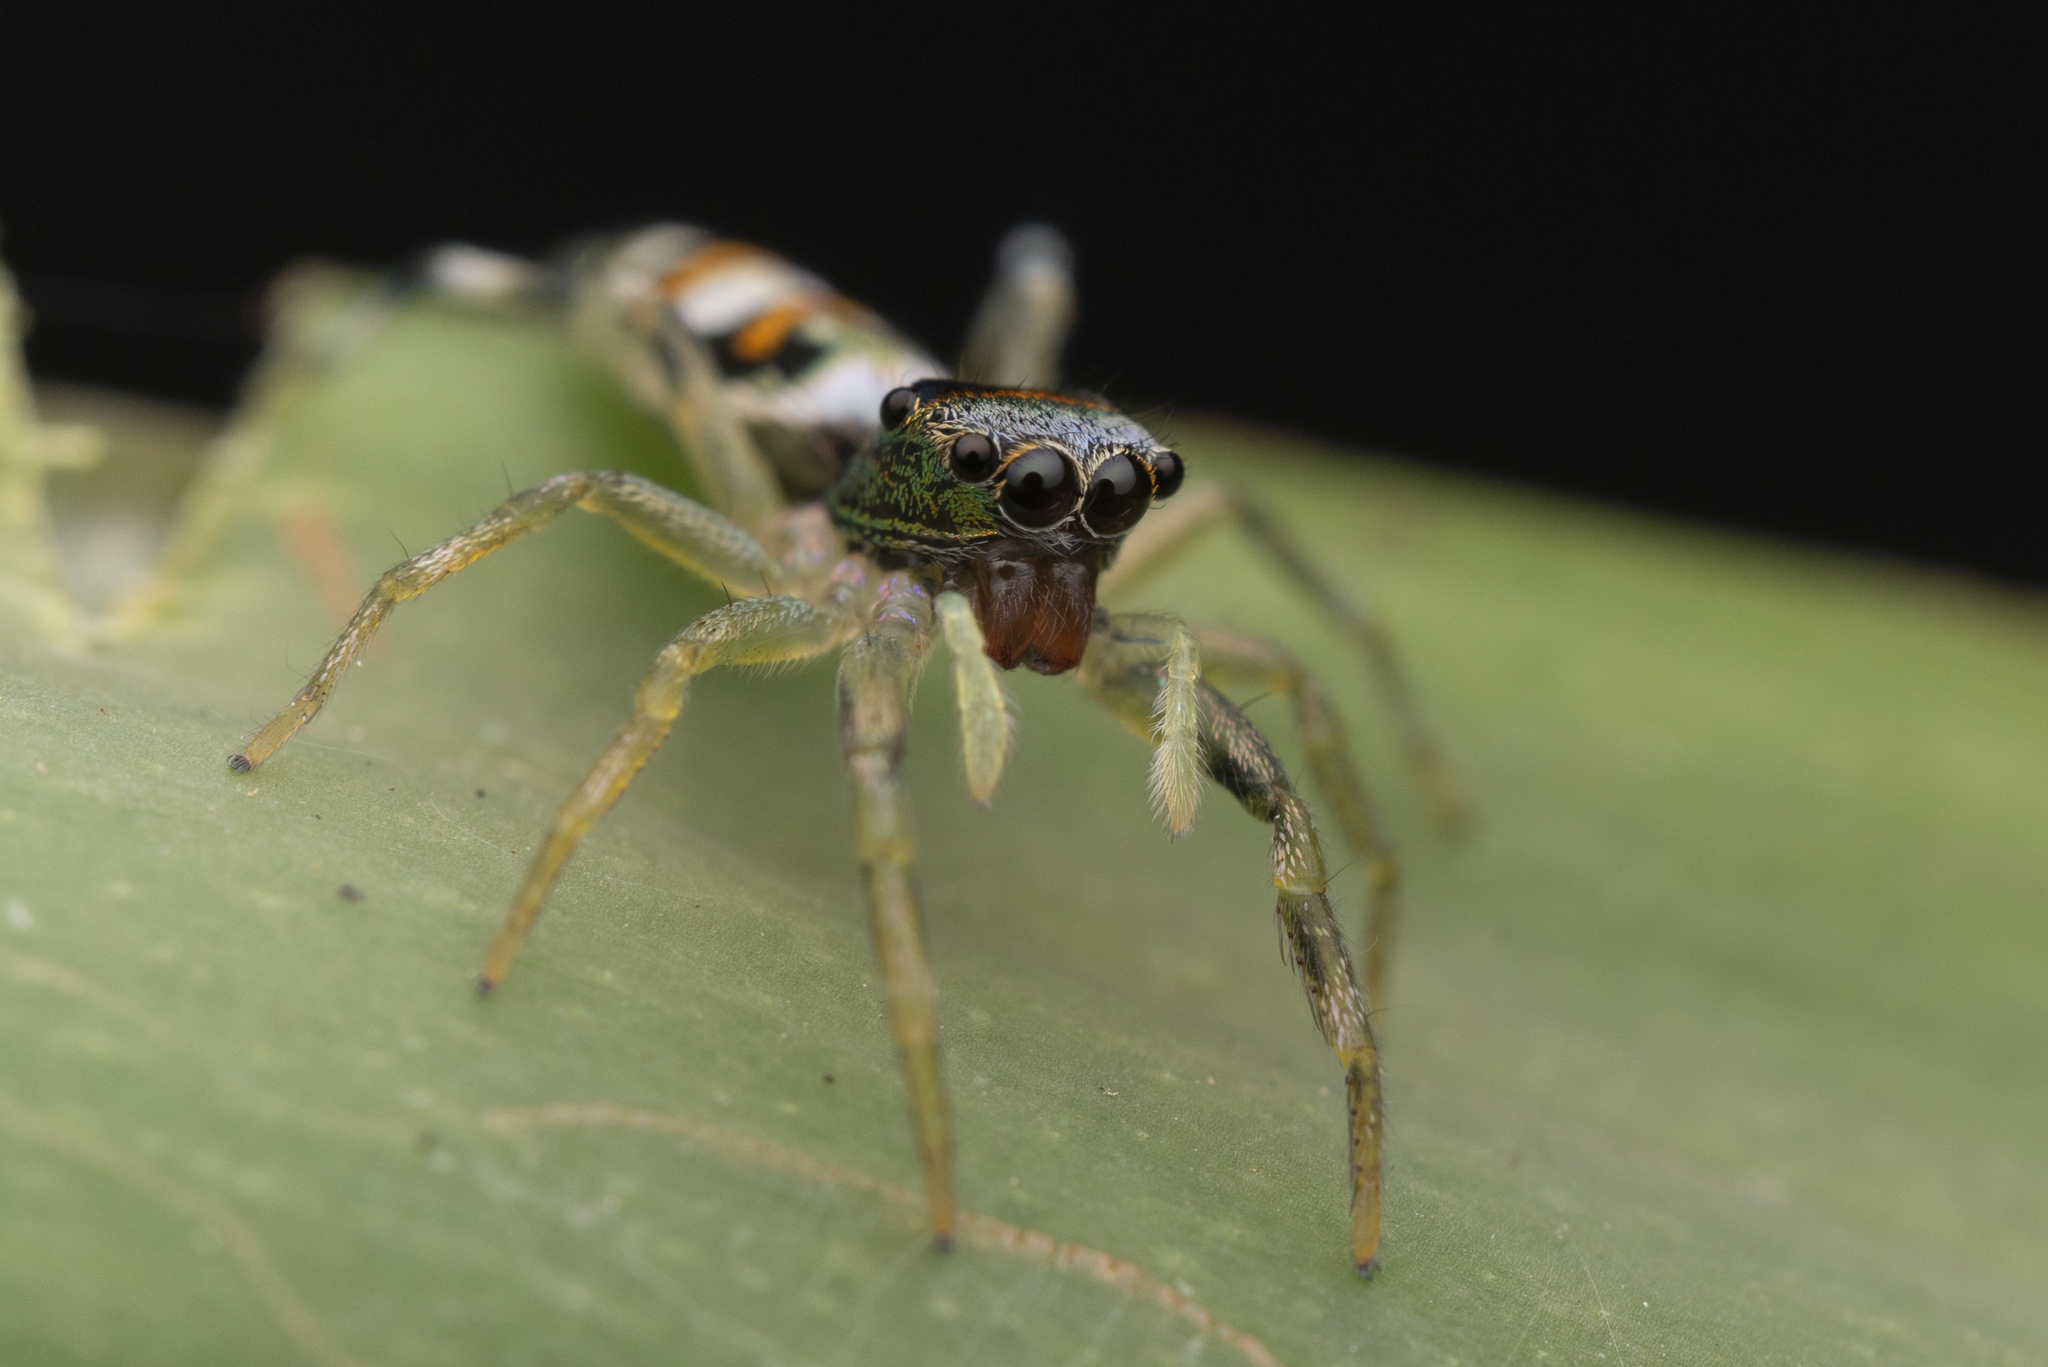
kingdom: Animalia
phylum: Arthropoda
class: Arachnida
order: Araneae
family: Salticidae
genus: Chrysilla
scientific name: Chrysilla acerosa
